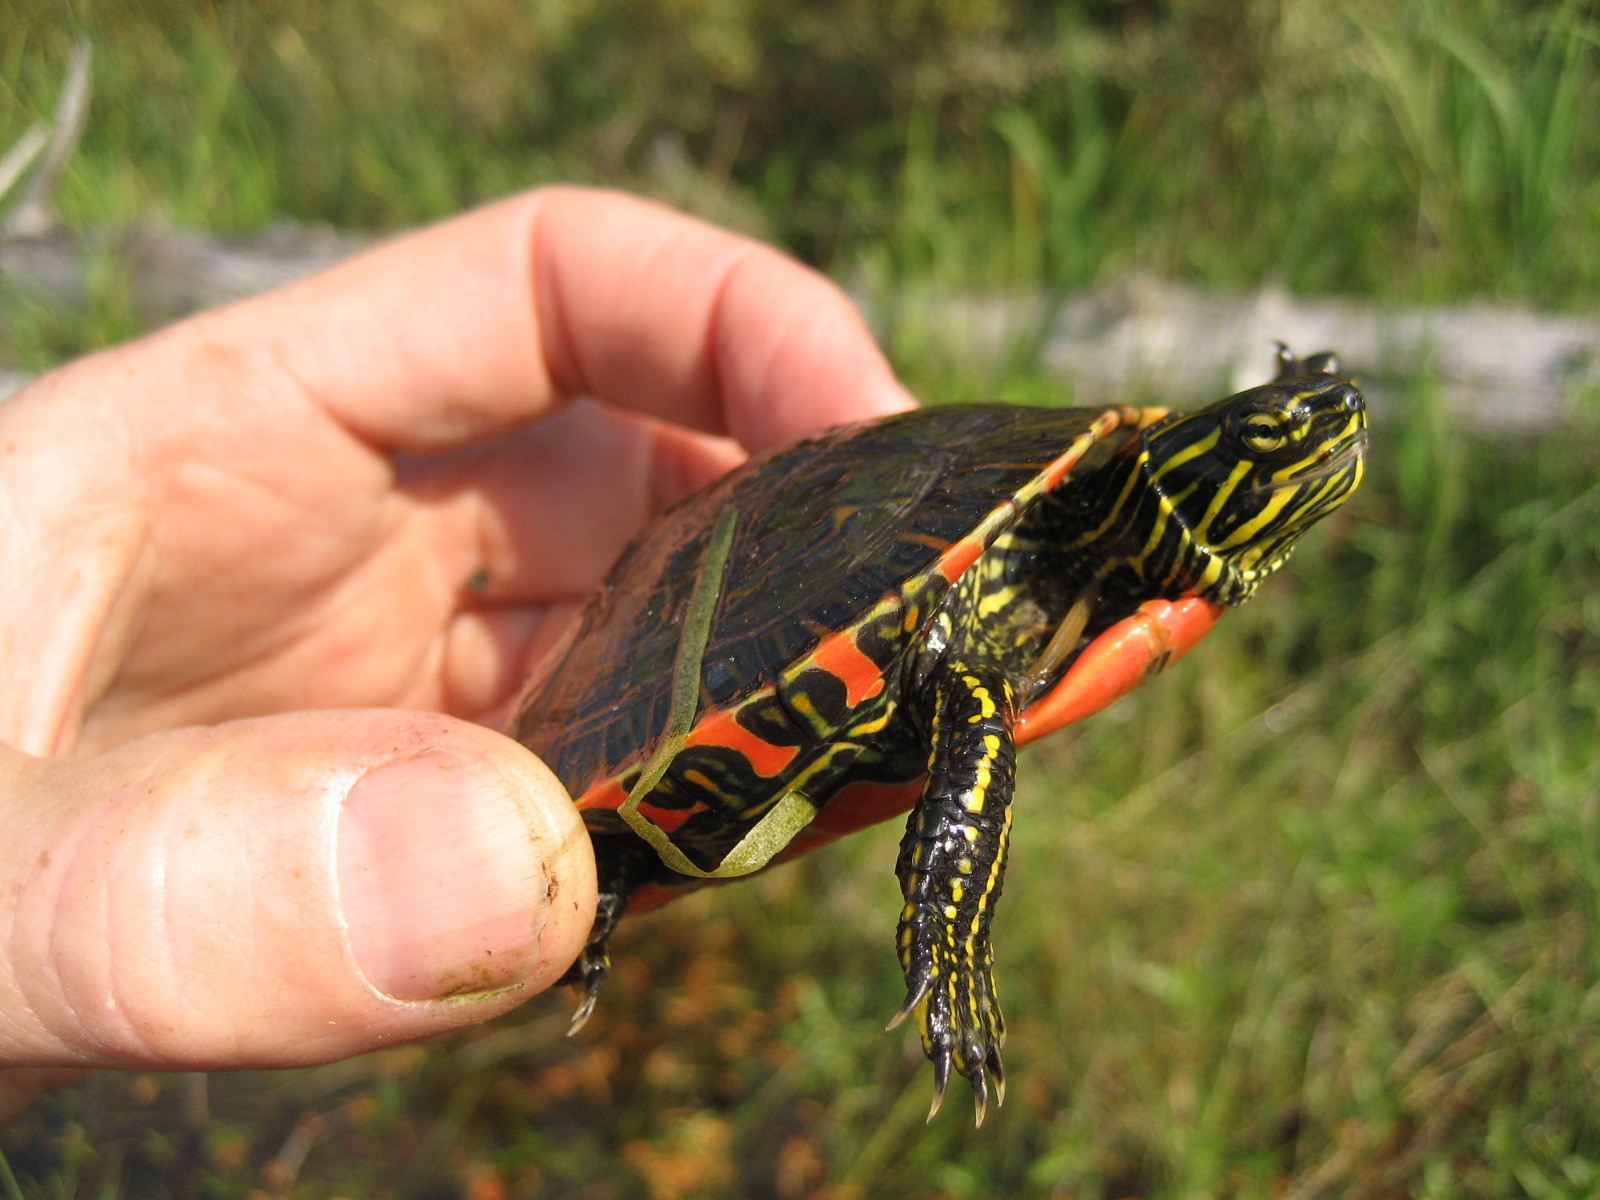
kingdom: Animalia
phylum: Chordata
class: Testudines
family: Emydidae
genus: Chrysemys
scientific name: Chrysemys picta
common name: Painted turtle
